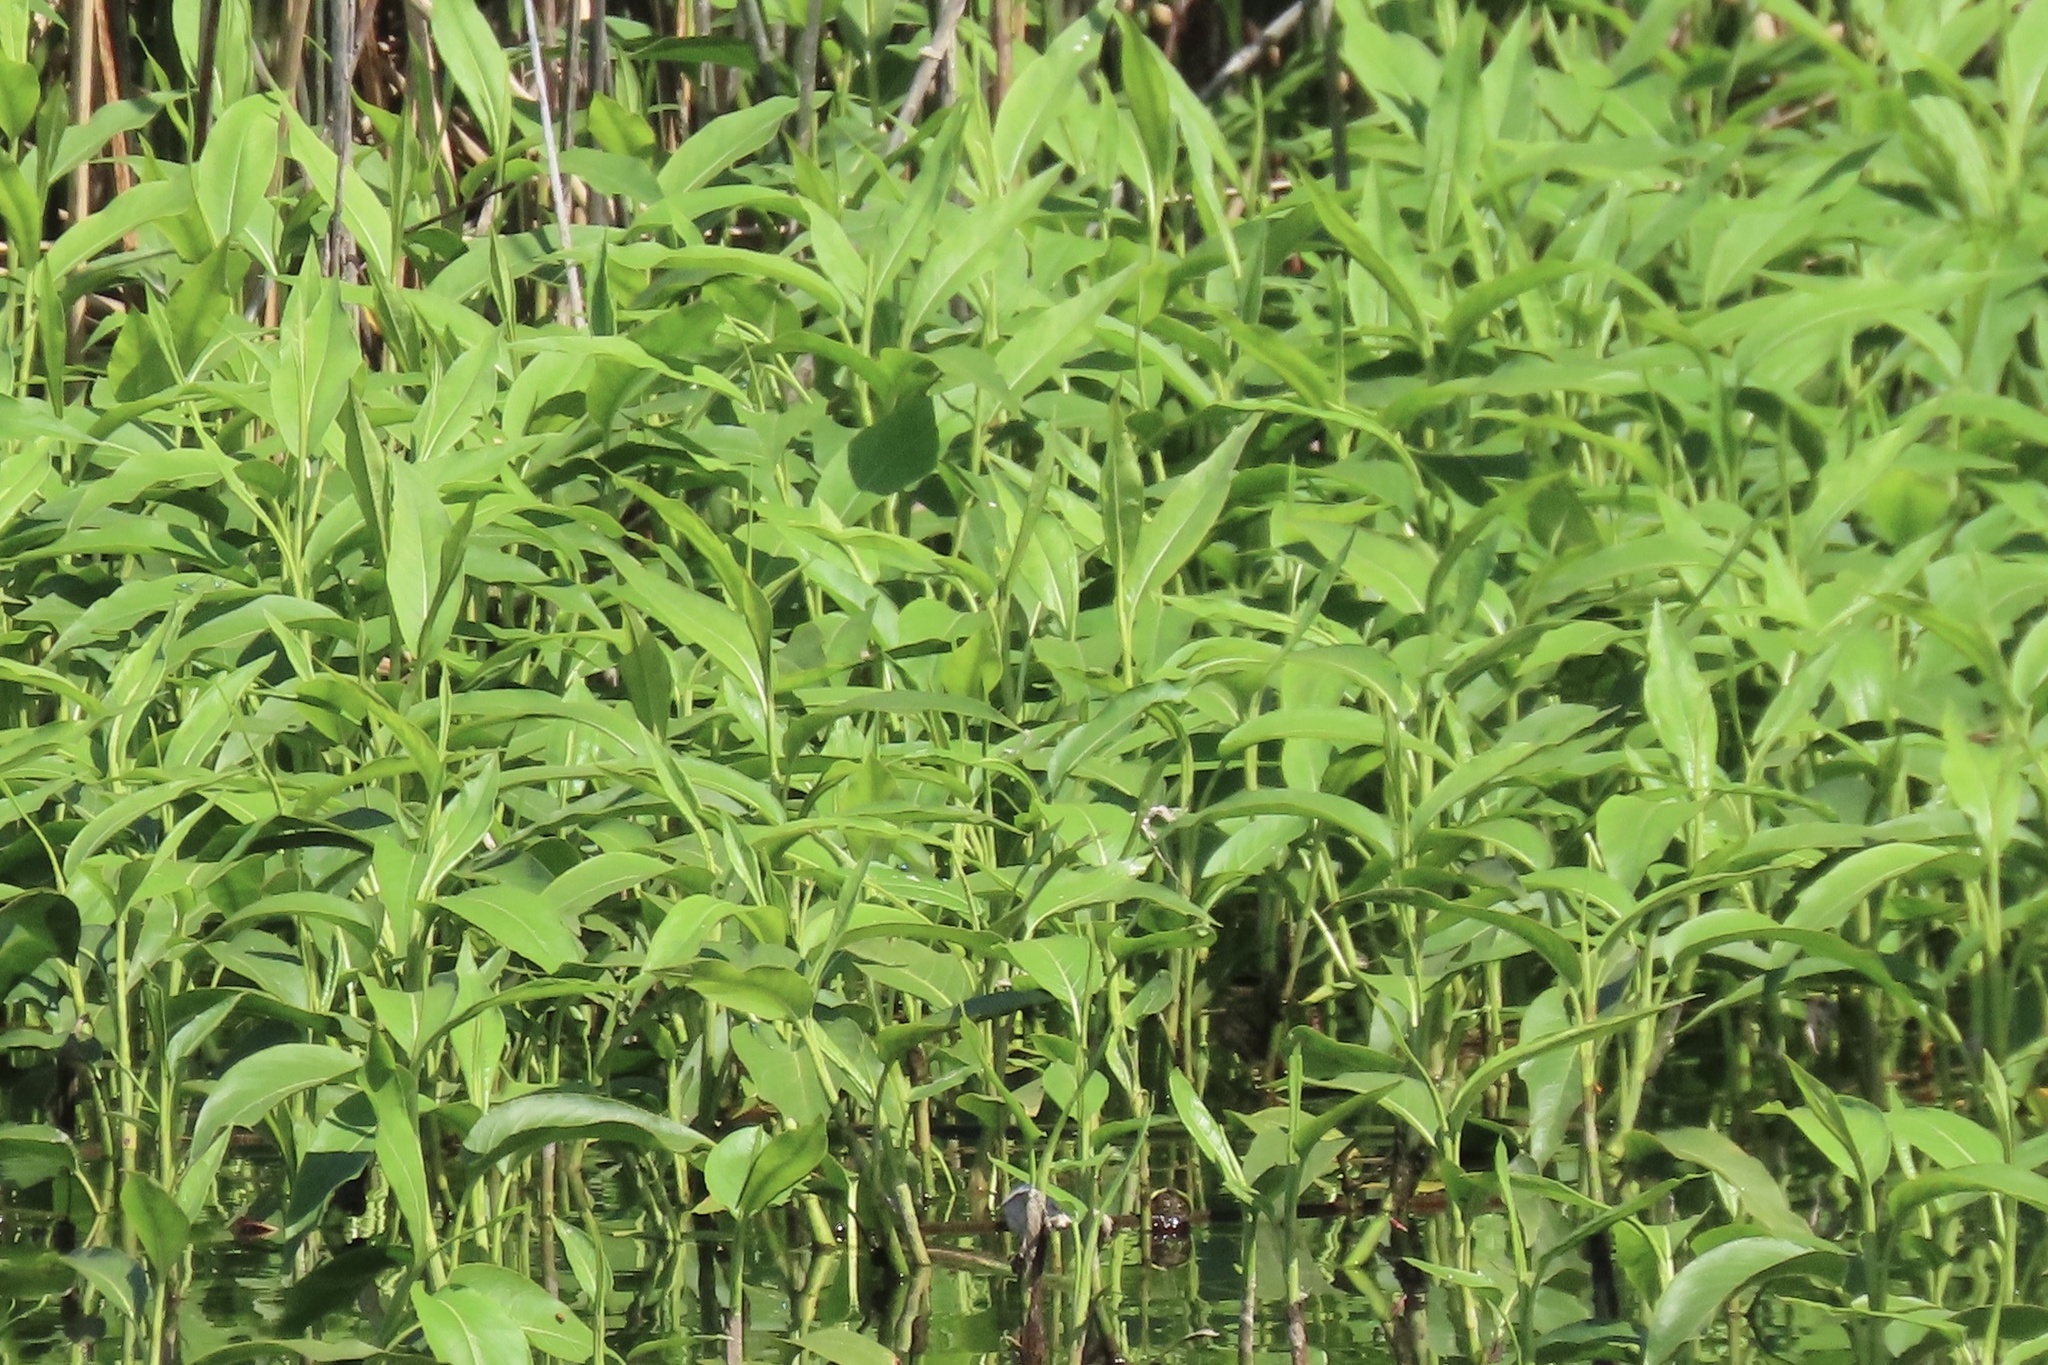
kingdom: Plantae
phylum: Tracheophyta
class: Magnoliopsida
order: Caryophyllales
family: Polygonaceae
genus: Persicaria
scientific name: Persicaria amphibia
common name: Amphibious bistort
